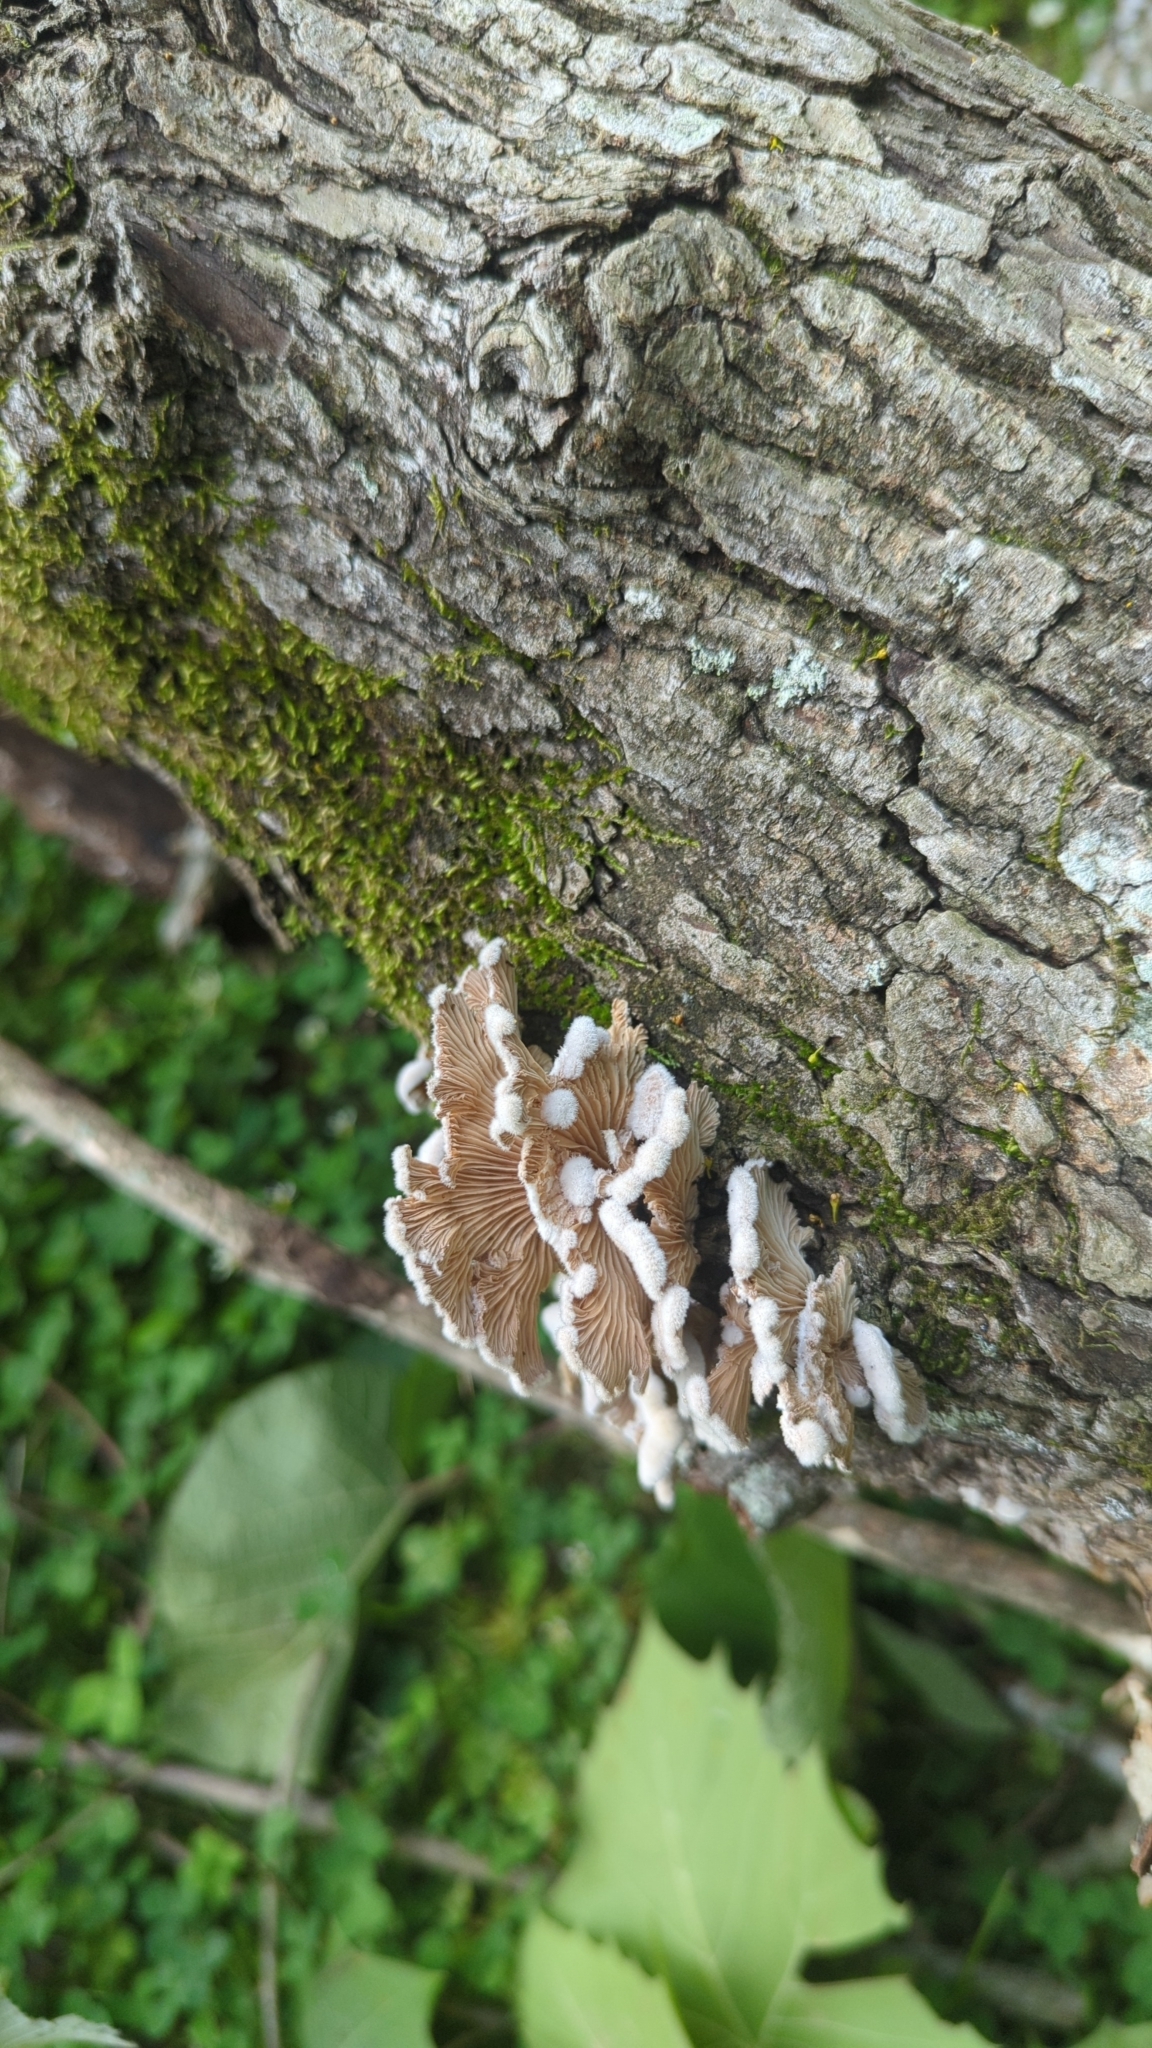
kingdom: Fungi
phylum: Basidiomycota
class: Agaricomycetes
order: Agaricales
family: Schizophyllaceae
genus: Schizophyllum
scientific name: Schizophyllum commune
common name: Common porecrust
